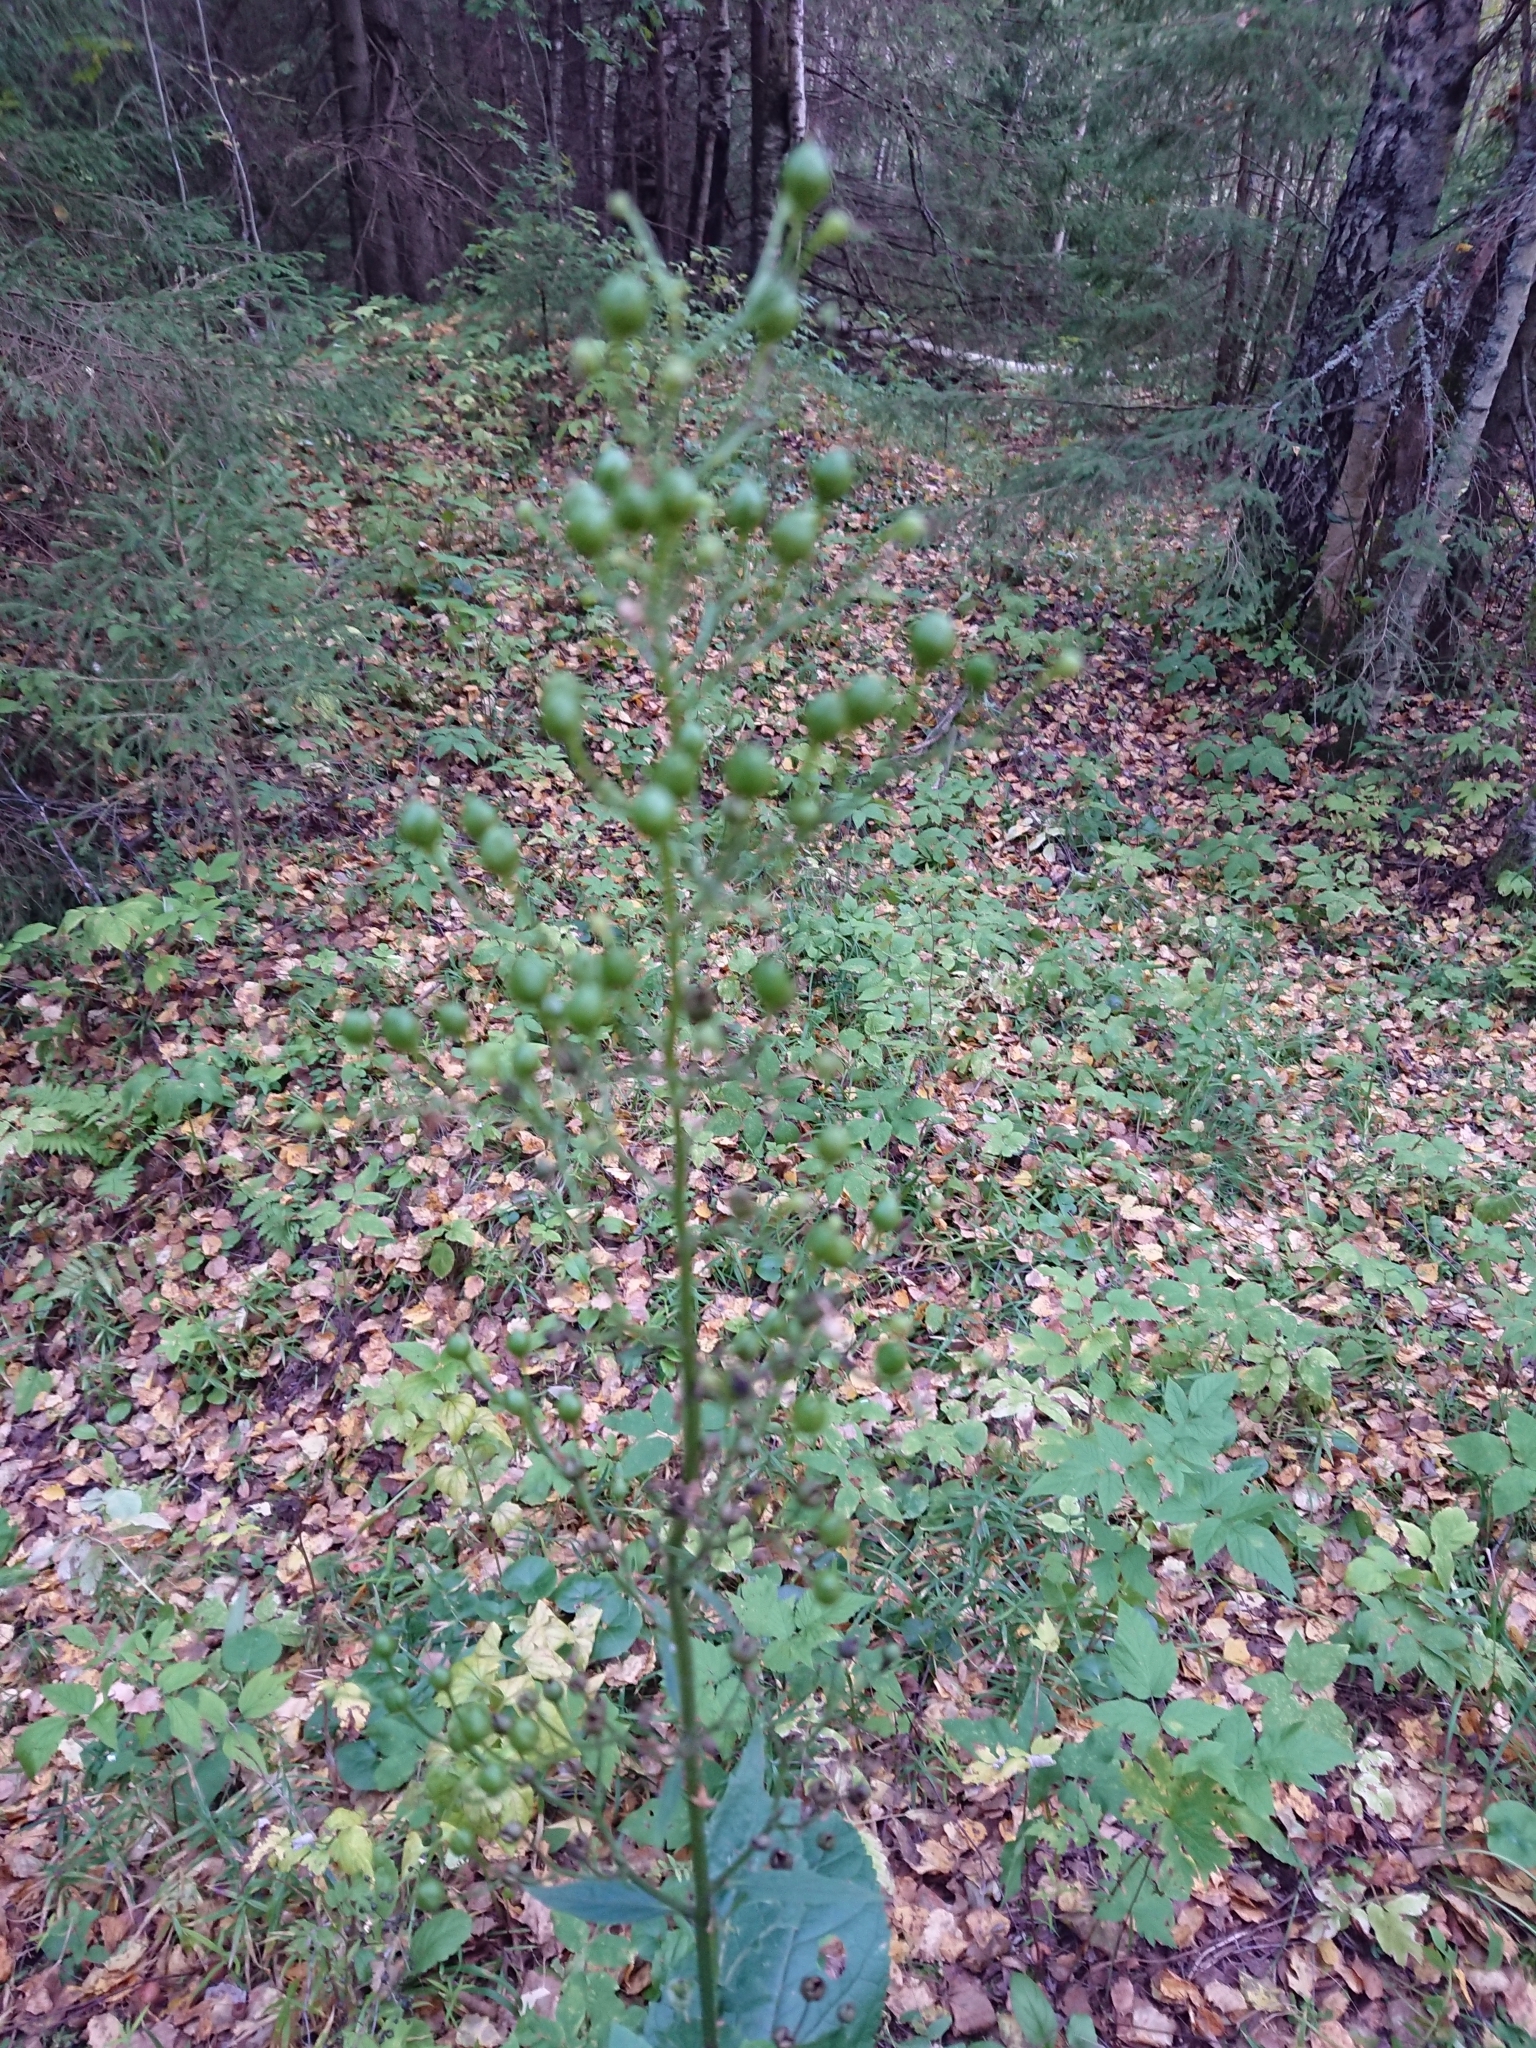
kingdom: Plantae
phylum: Tracheophyta
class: Magnoliopsida
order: Lamiales
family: Scrophulariaceae
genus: Scrophularia
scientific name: Scrophularia nodosa
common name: Common figwort
